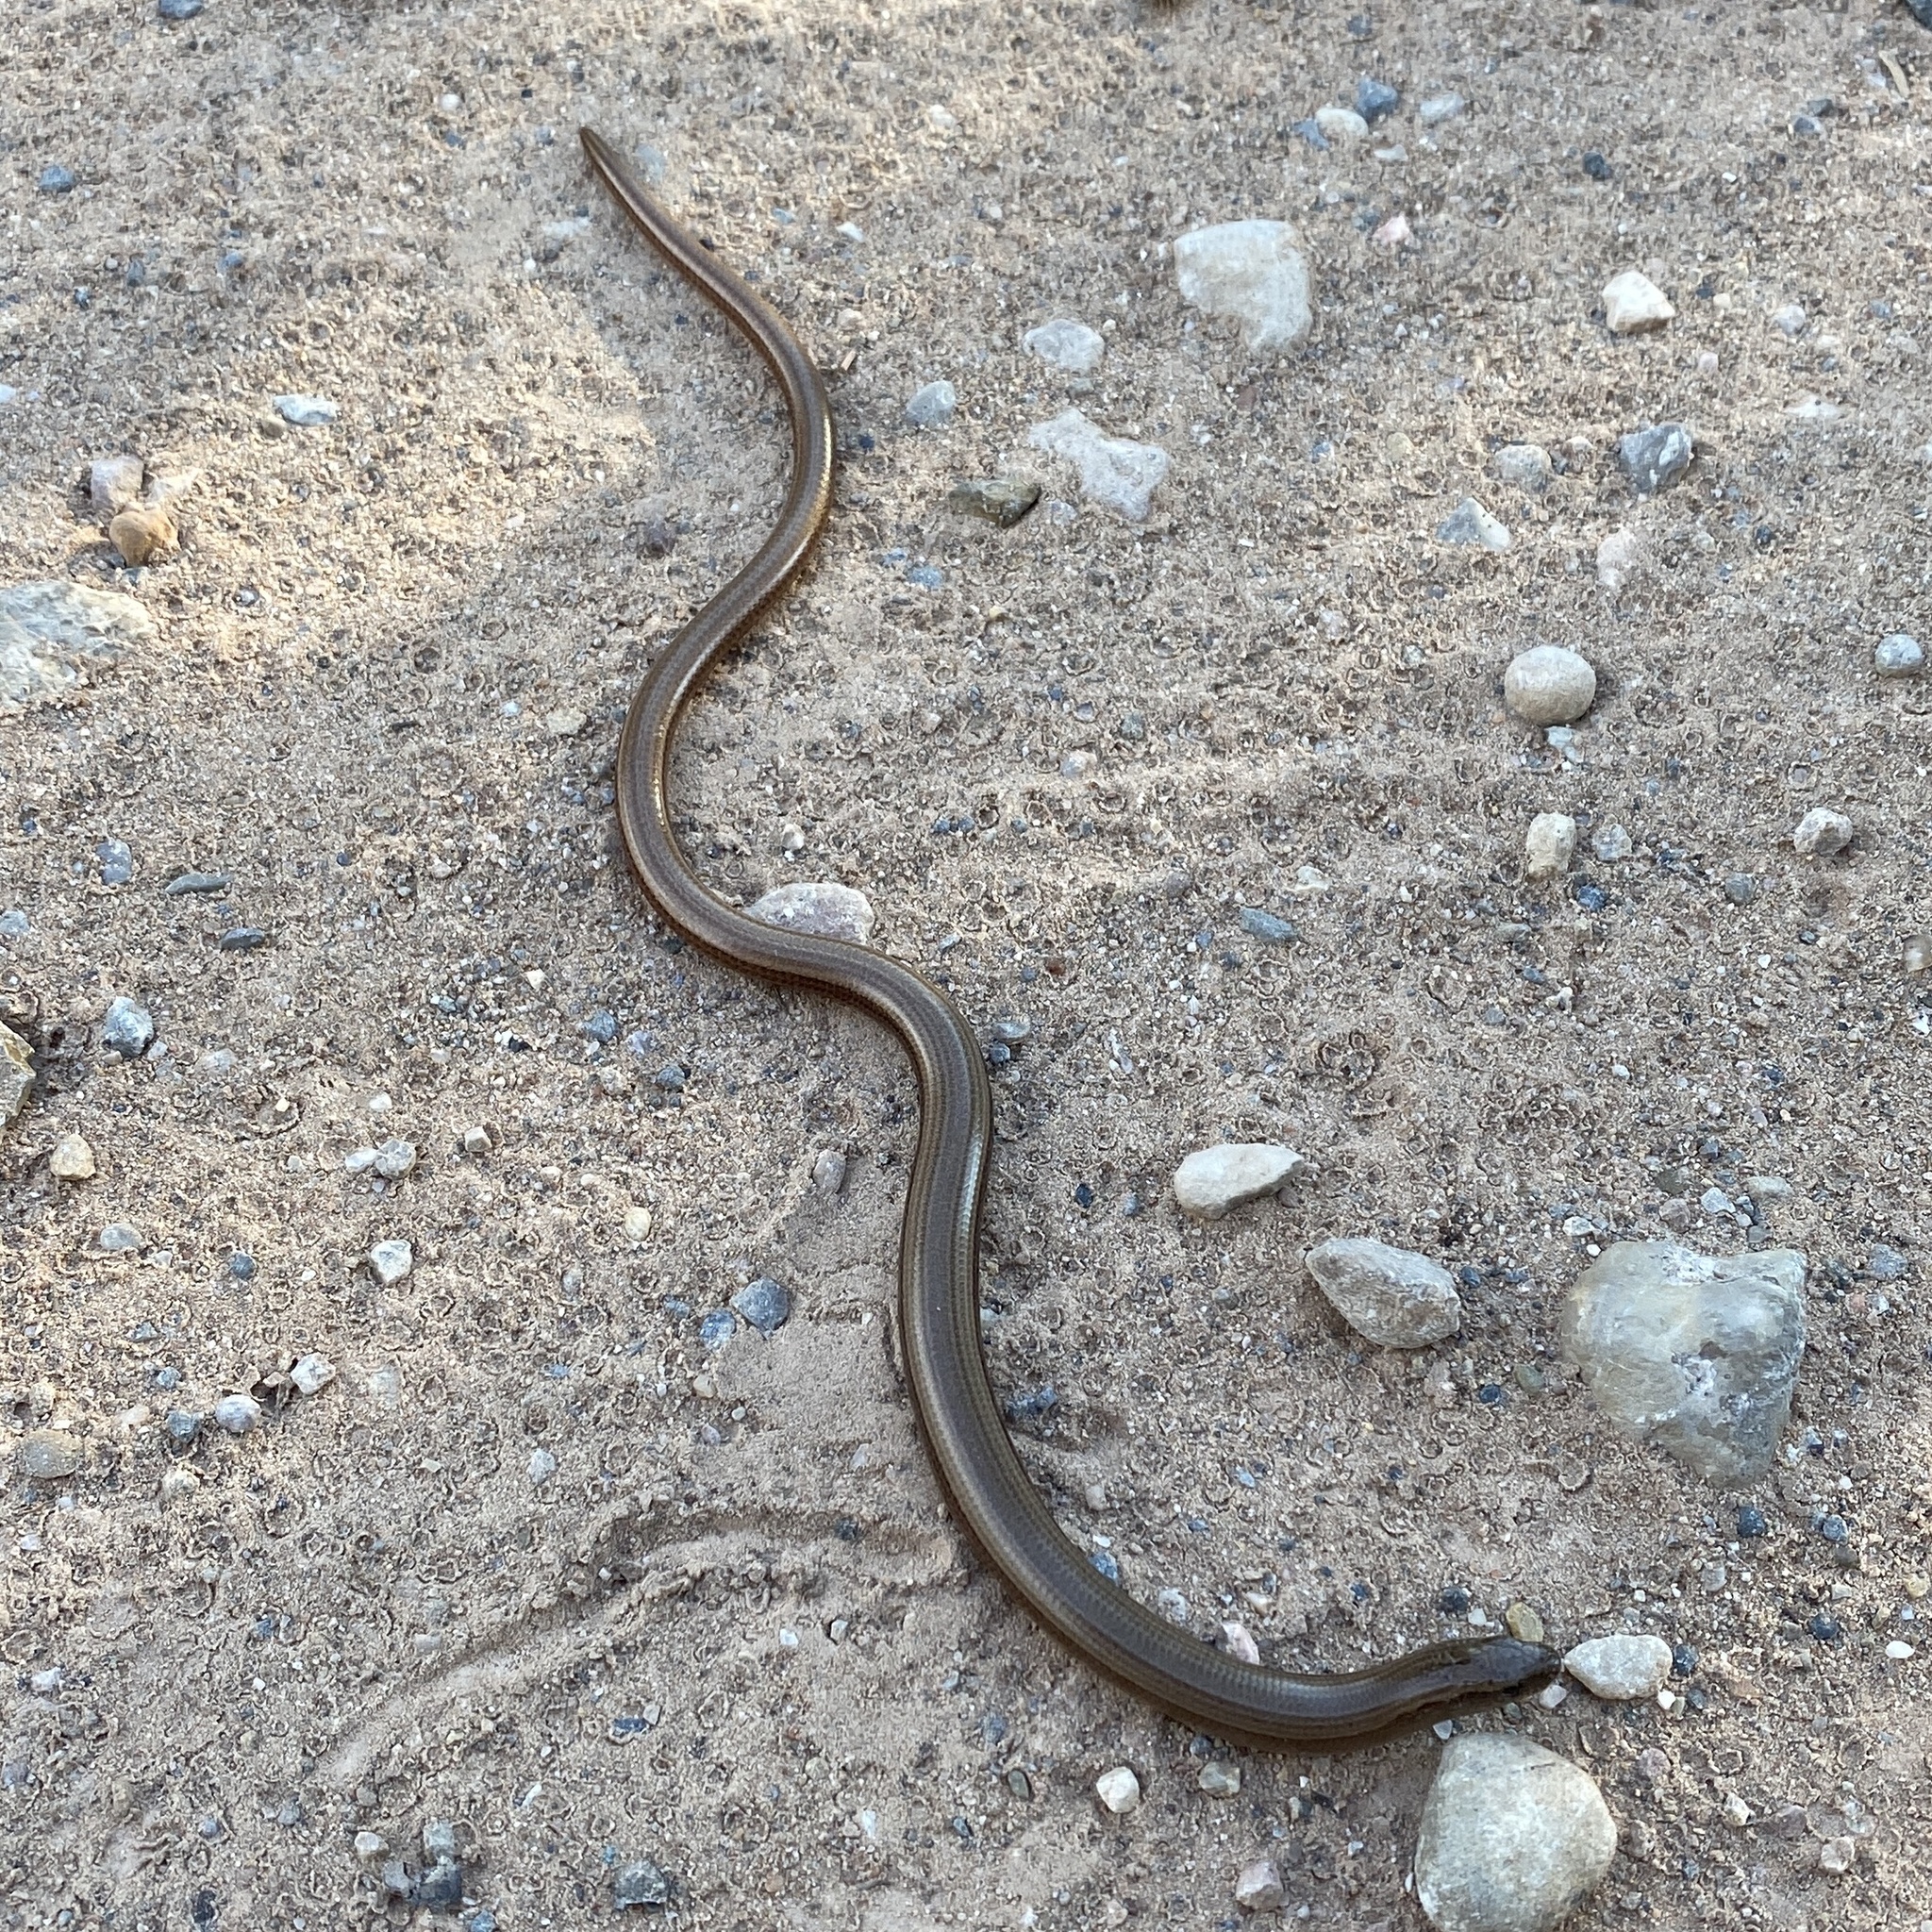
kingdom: Animalia
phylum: Chordata
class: Squamata
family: Anguidae
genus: Anguis
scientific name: Anguis fragilis
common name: Slow worm
